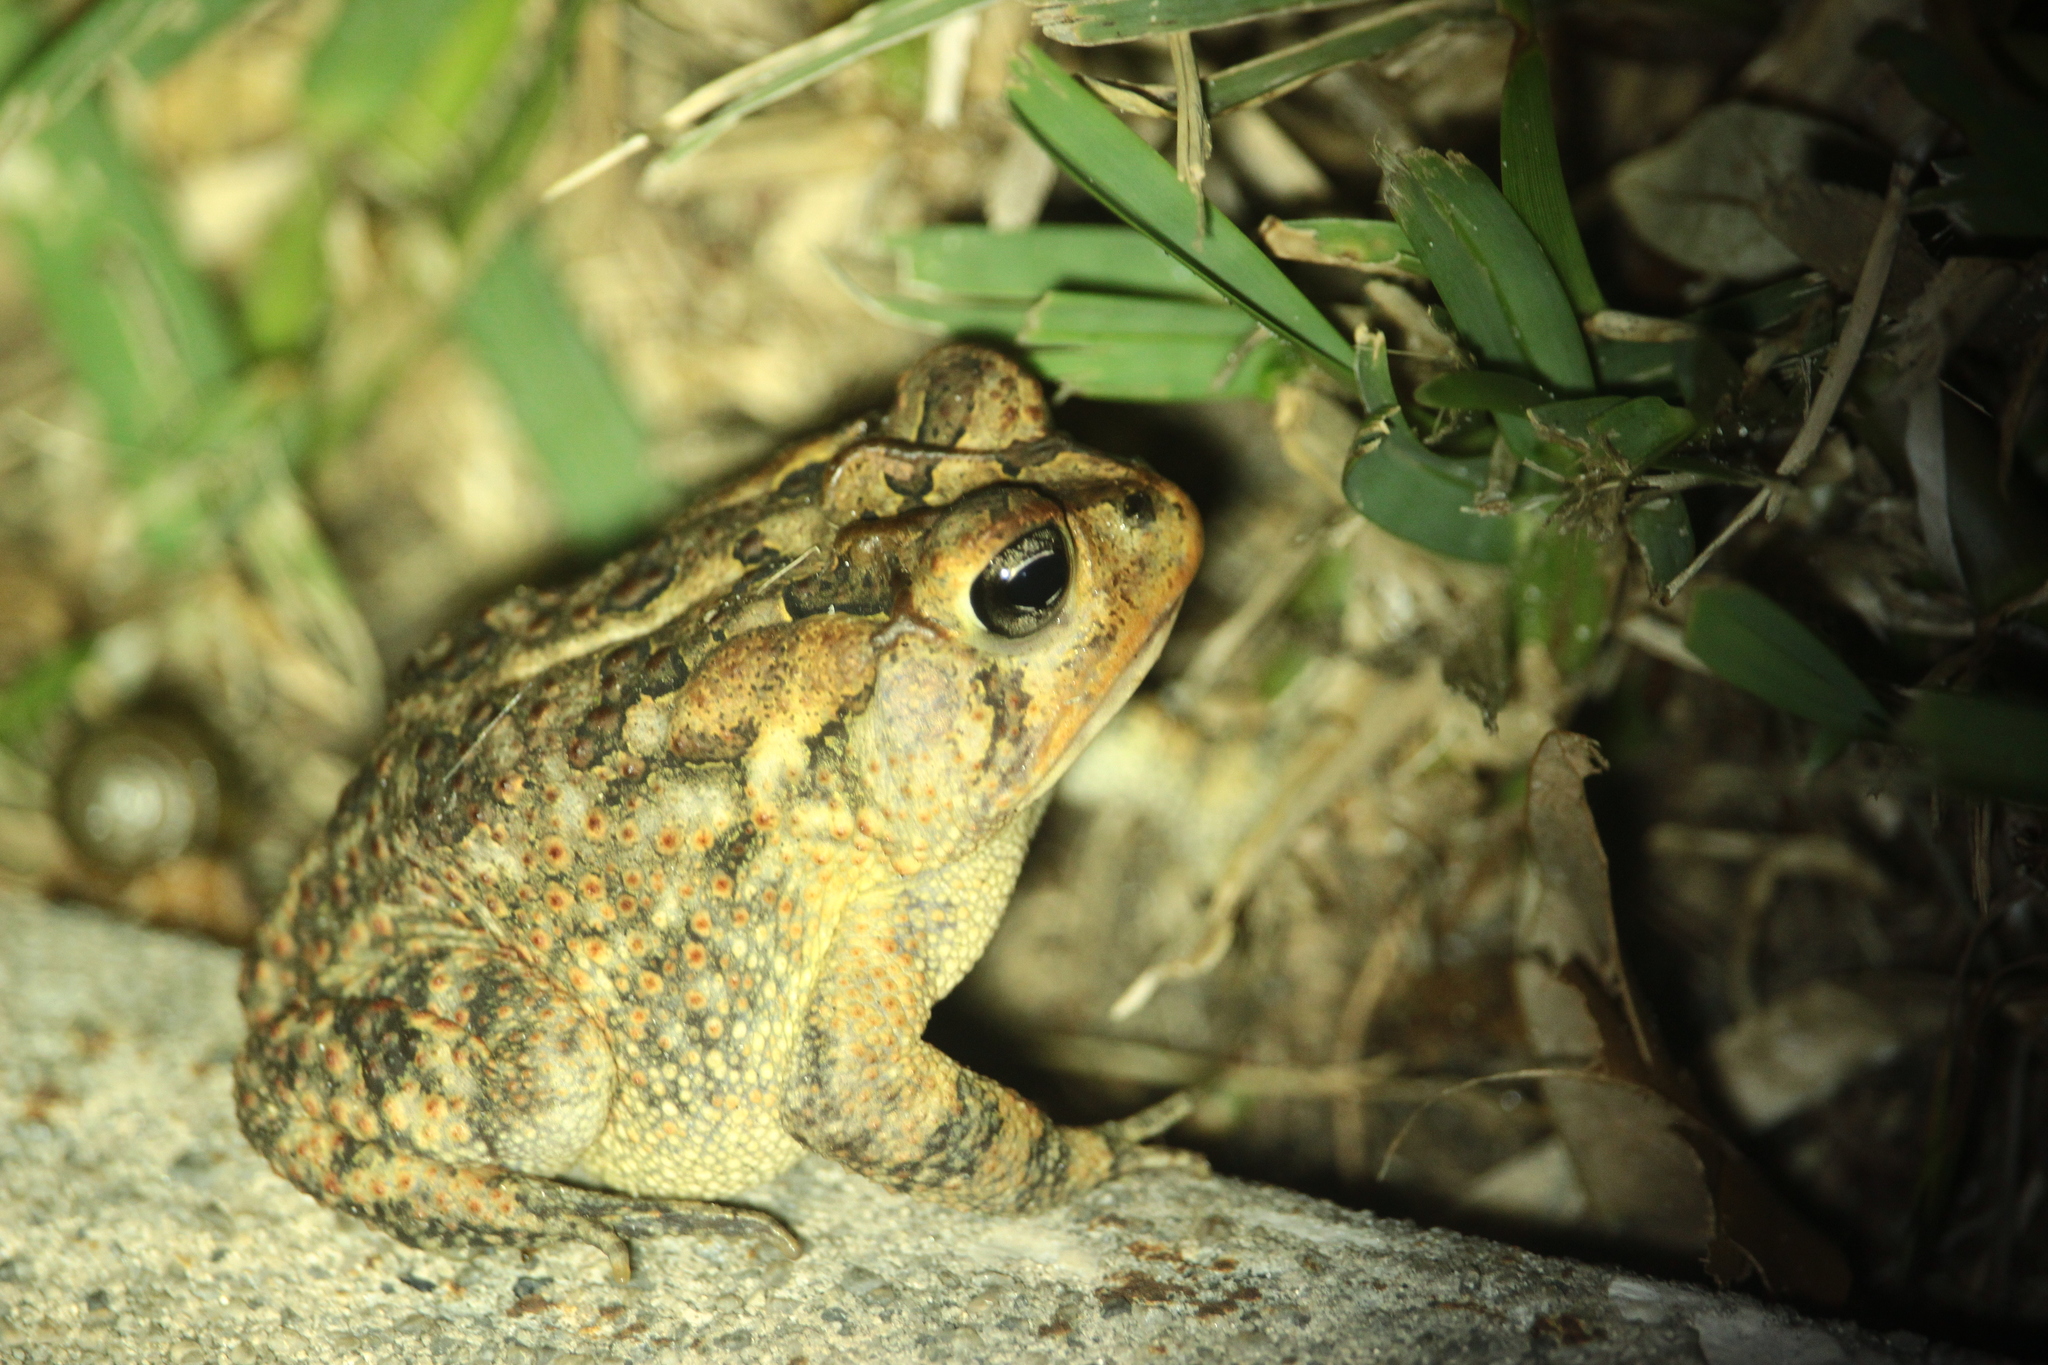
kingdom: Animalia
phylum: Chordata
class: Amphibia
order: Anura
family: Bufonidae
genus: Anaxyrus
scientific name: Anaxyrus terrestris
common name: Southern toad
